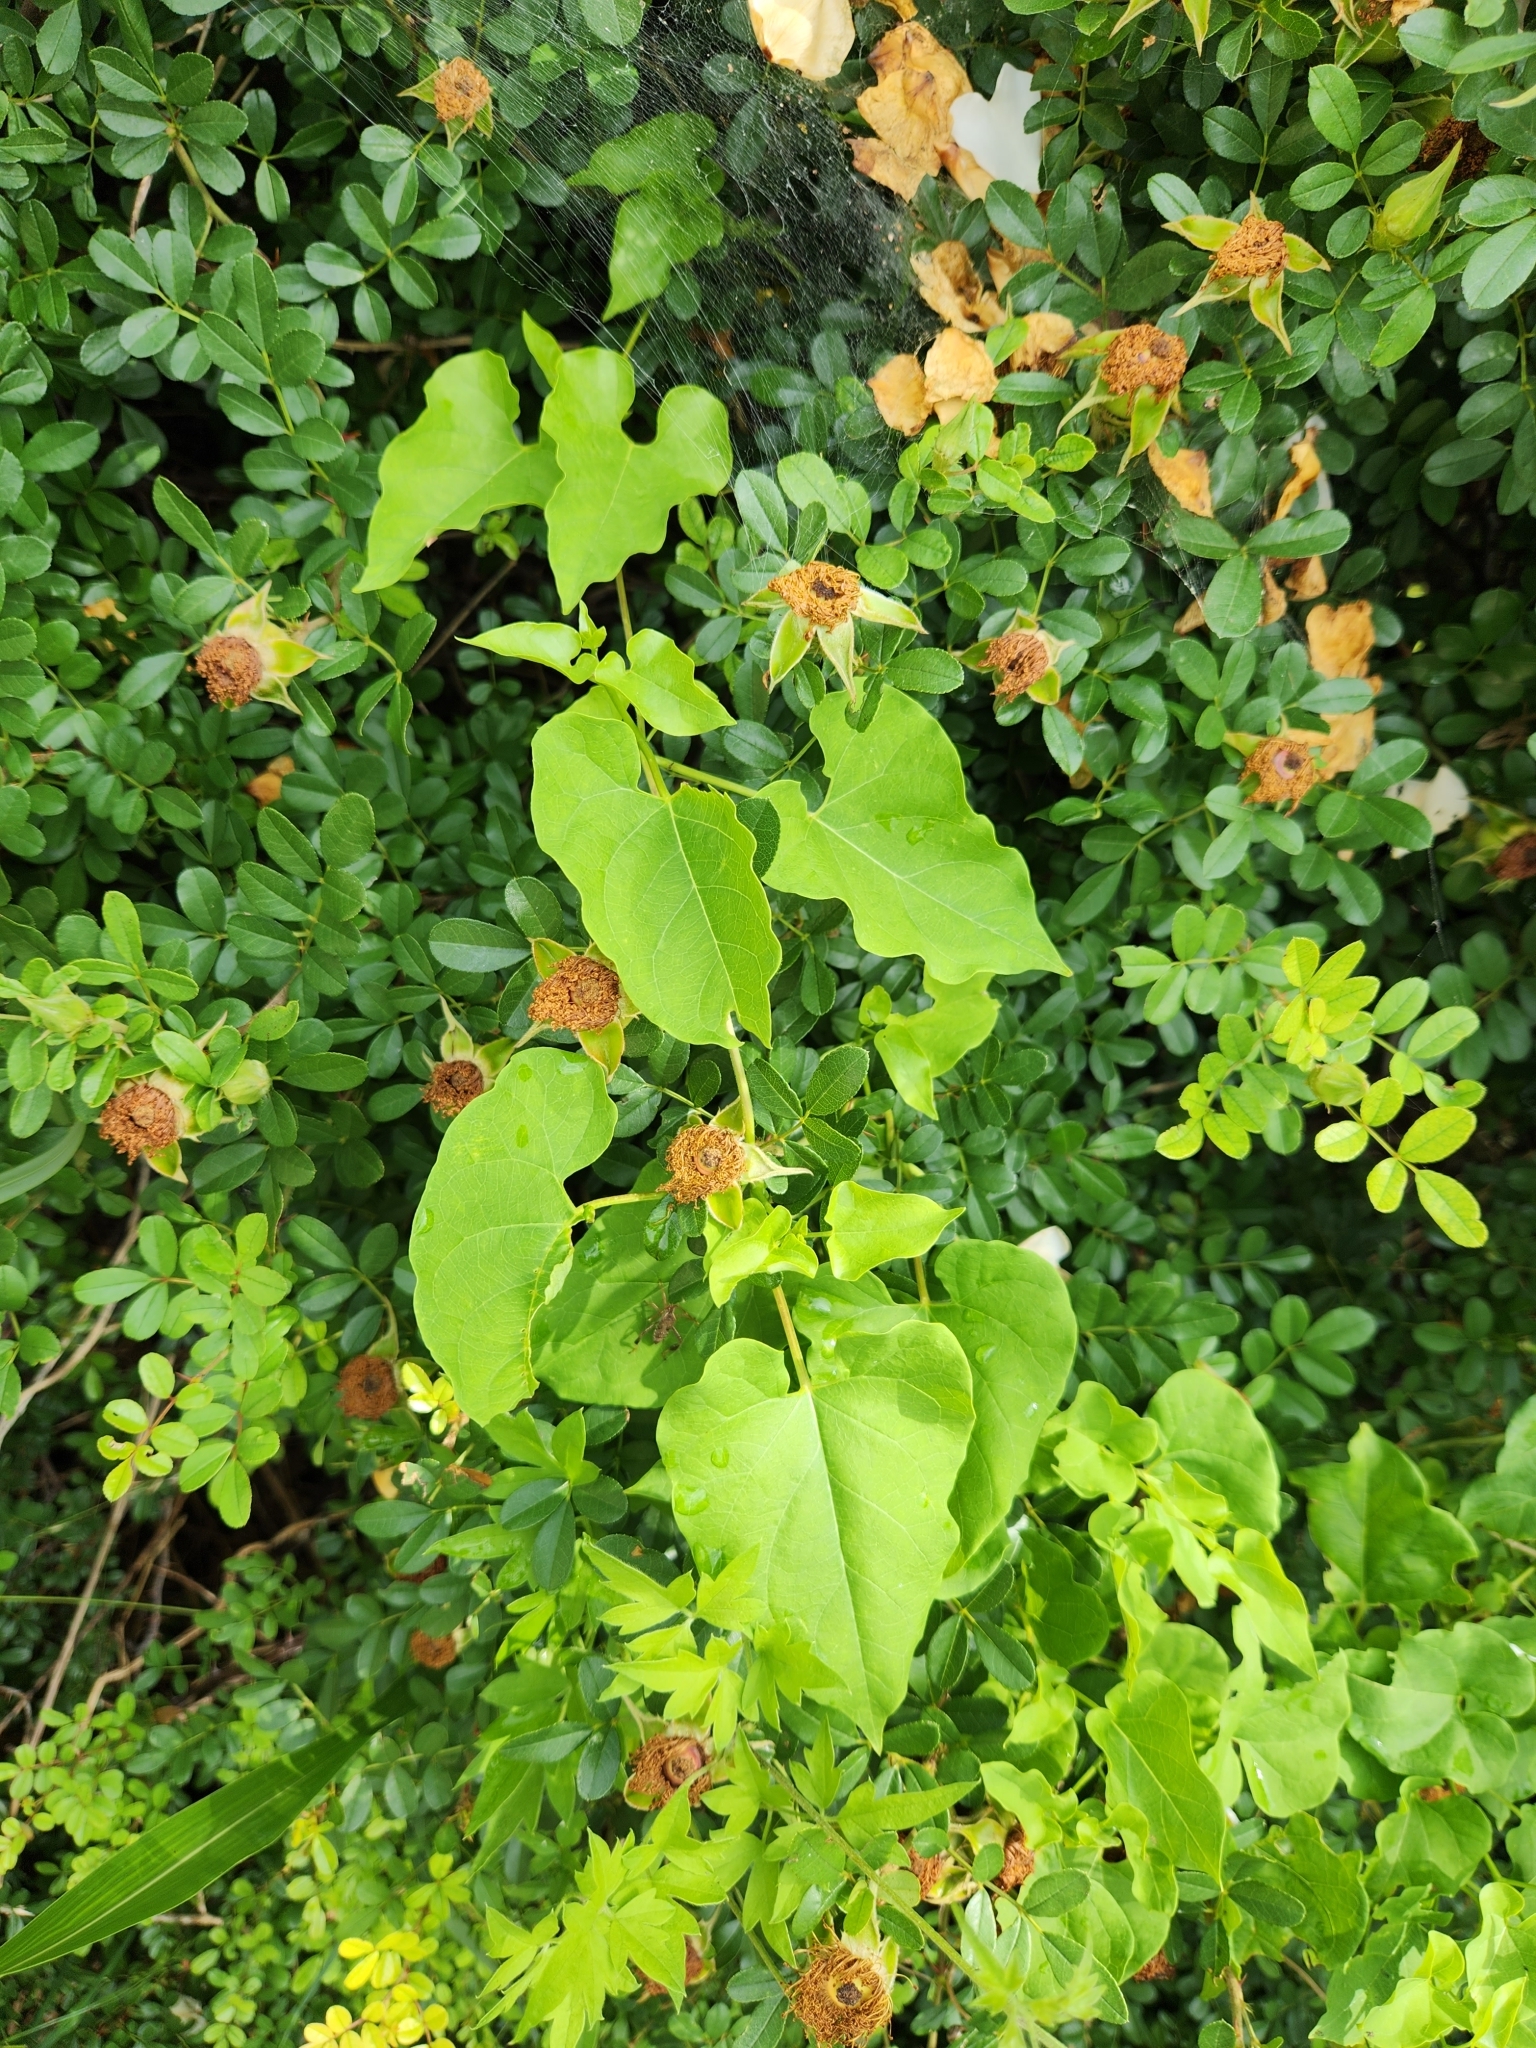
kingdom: Plantae
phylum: Tracheophyta
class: Magnoliopsida
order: Gentianales
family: Apocynaceae
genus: Cynanchum
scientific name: Cynanchum racemosum
